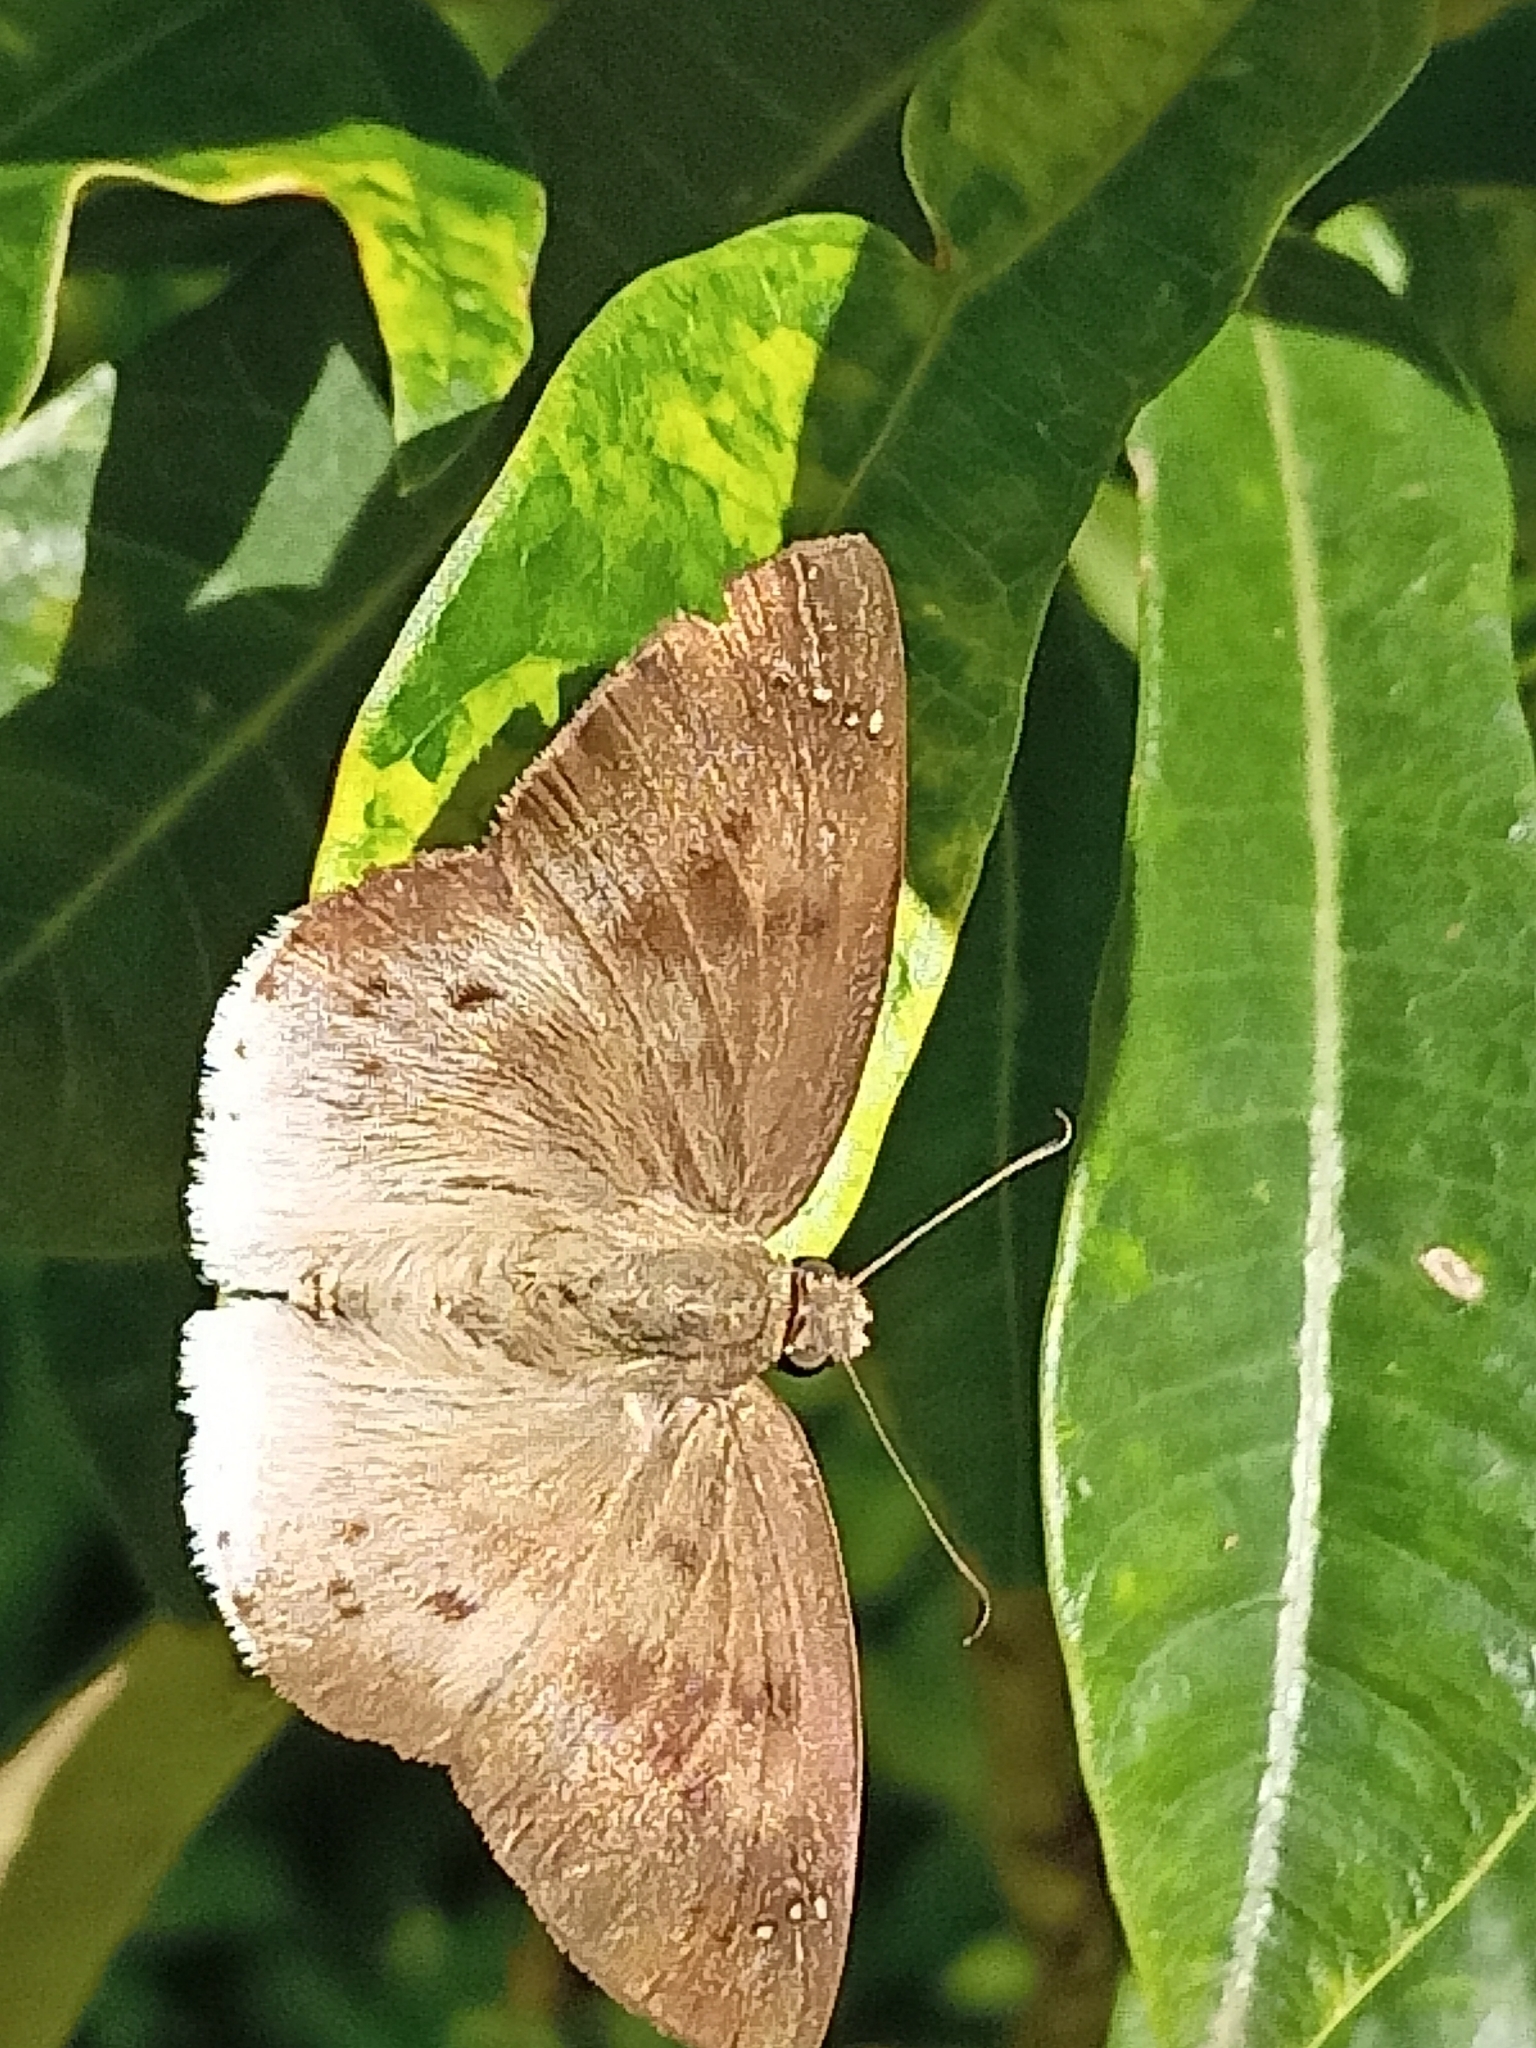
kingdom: Animalia
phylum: Arthropoda
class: Insecta
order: Lepidoptera
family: Hesperiidae
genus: Tagiades
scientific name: Tagiades japetus
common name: Pied flat
